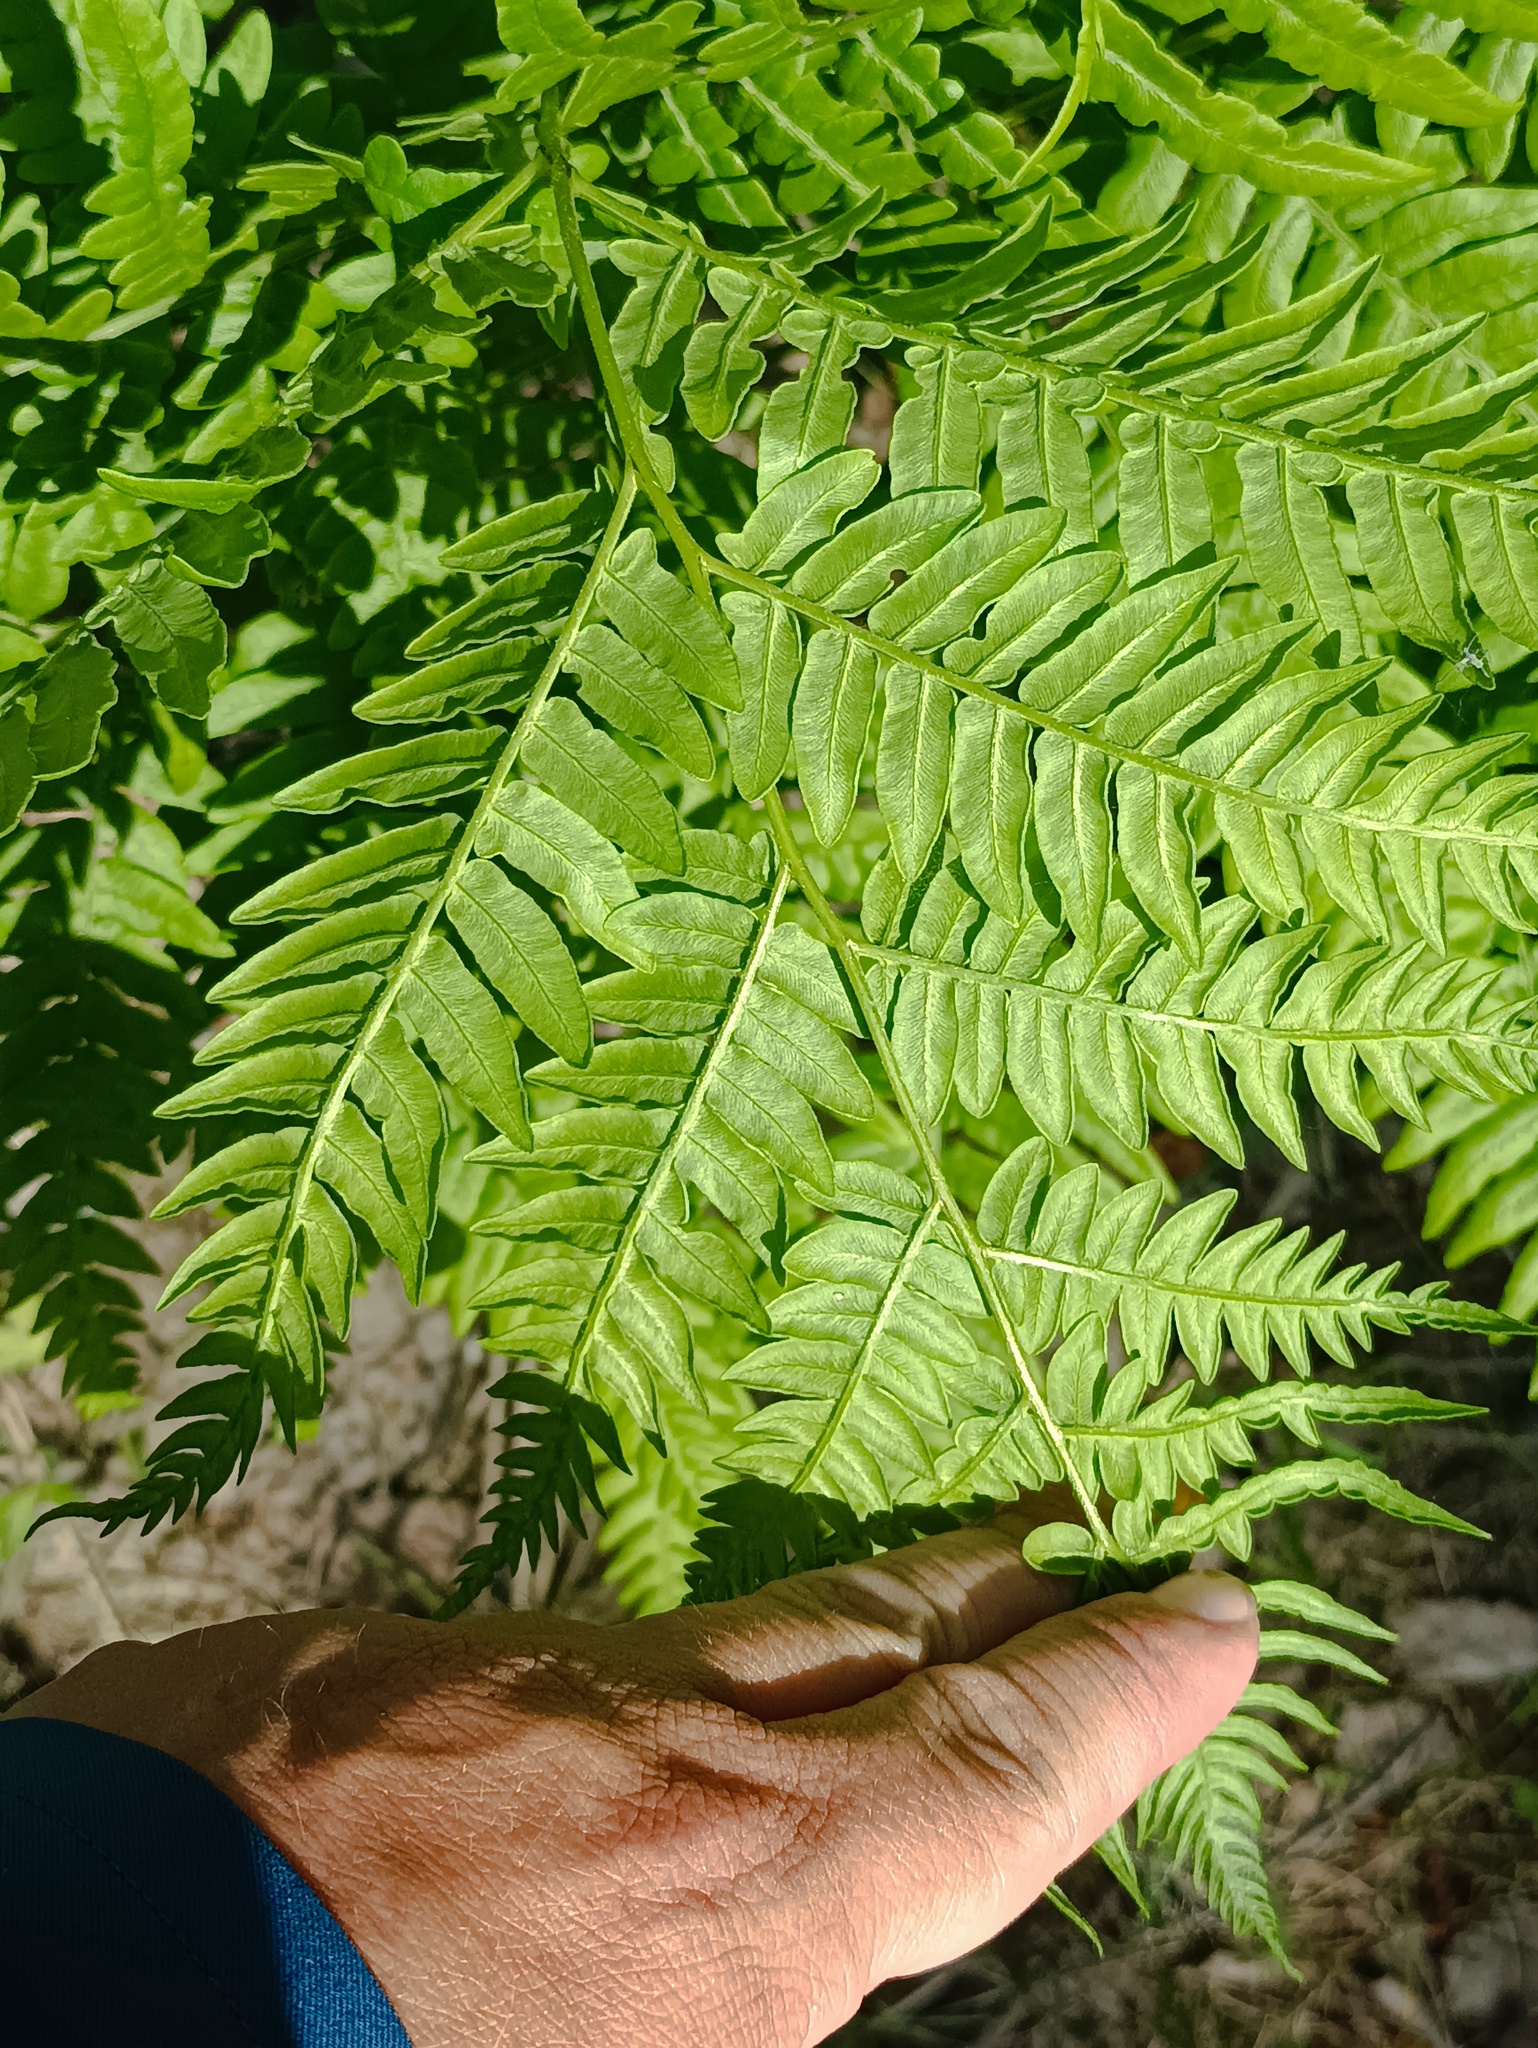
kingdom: Plantae
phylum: Tracheophyta
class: Polypodiopsida
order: Polypodiales
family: Dennstaedtiaceae
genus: Pteridium
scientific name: Pteridium aquilinum
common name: Bracken
